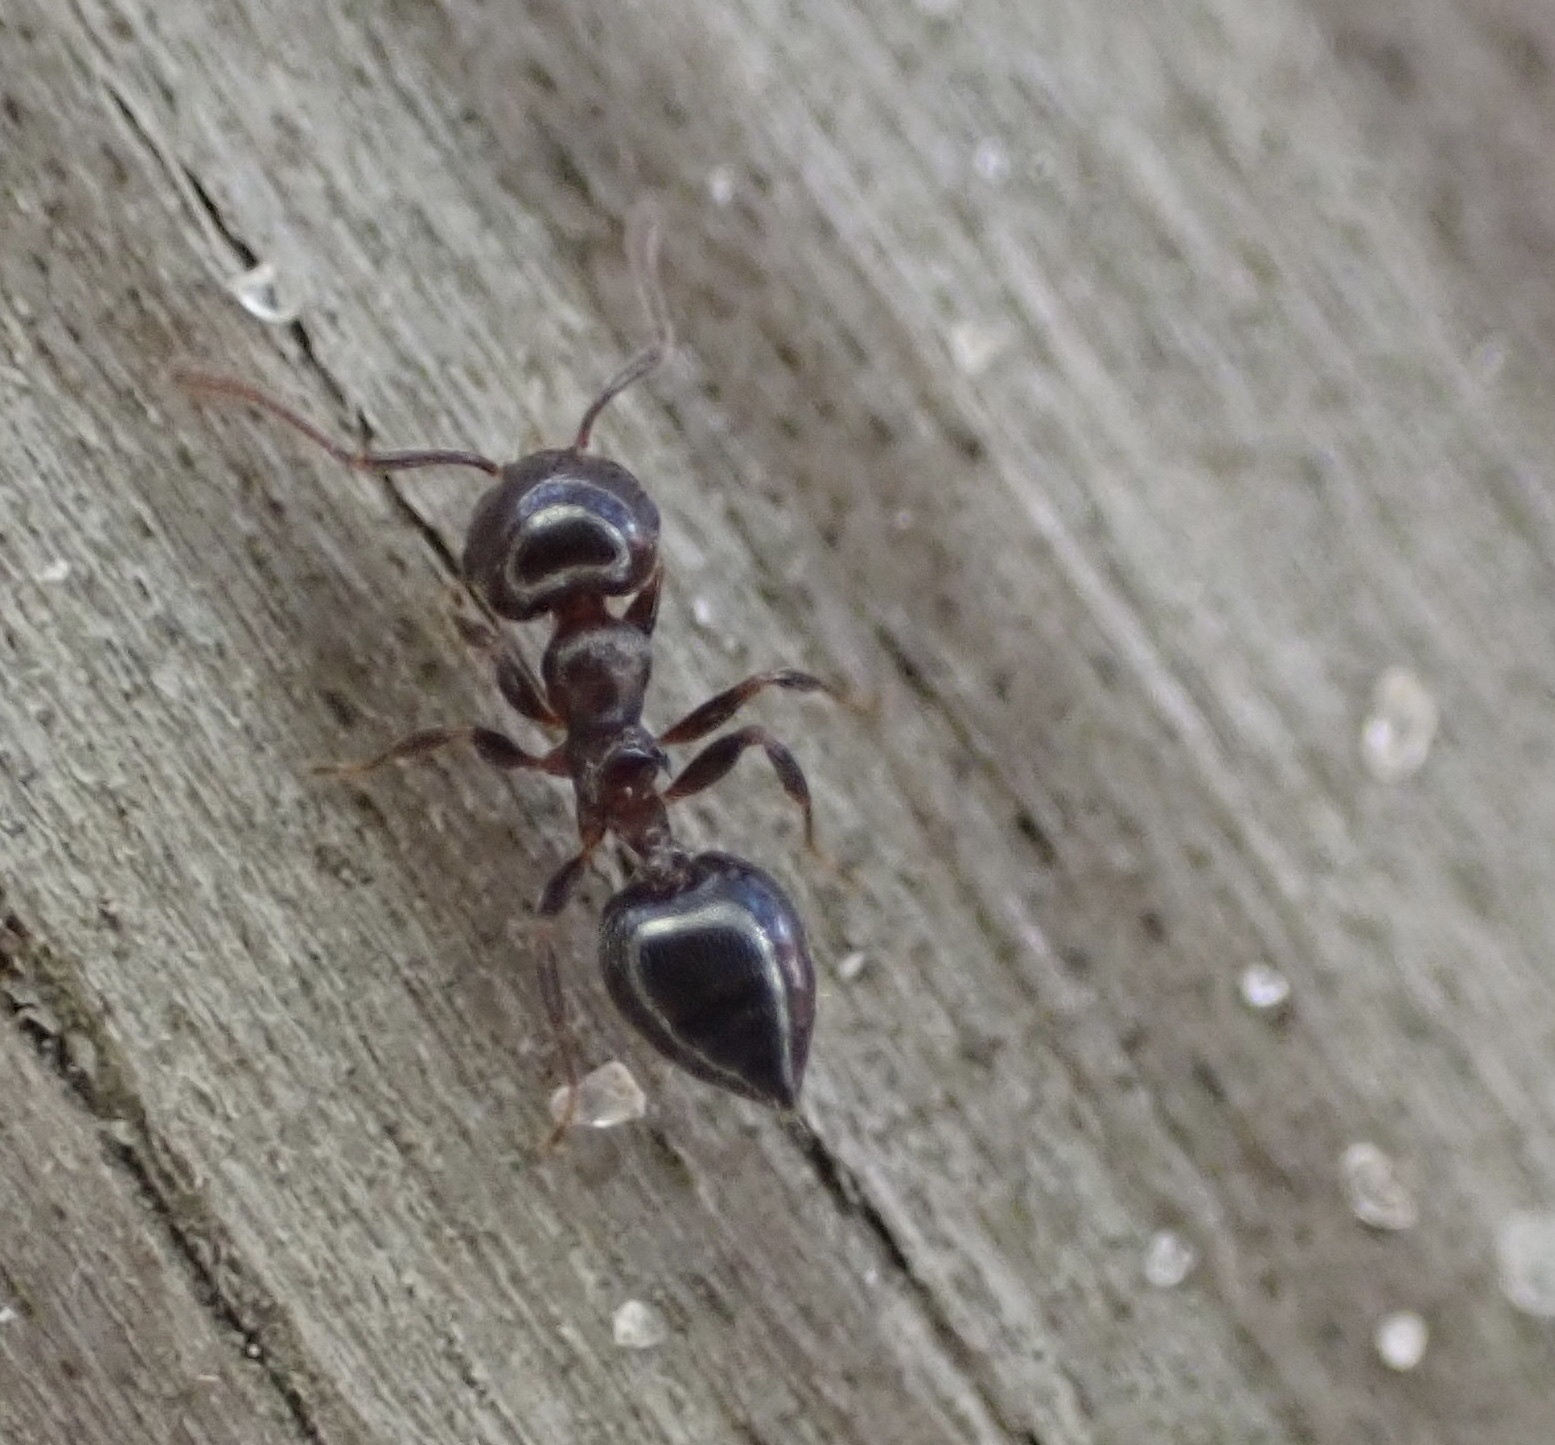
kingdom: Animalia
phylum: Arthropoda
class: Insecta
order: Hymenoptera
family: Formicidae
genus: Crematogaster
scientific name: Crematogaster ashmeadi
